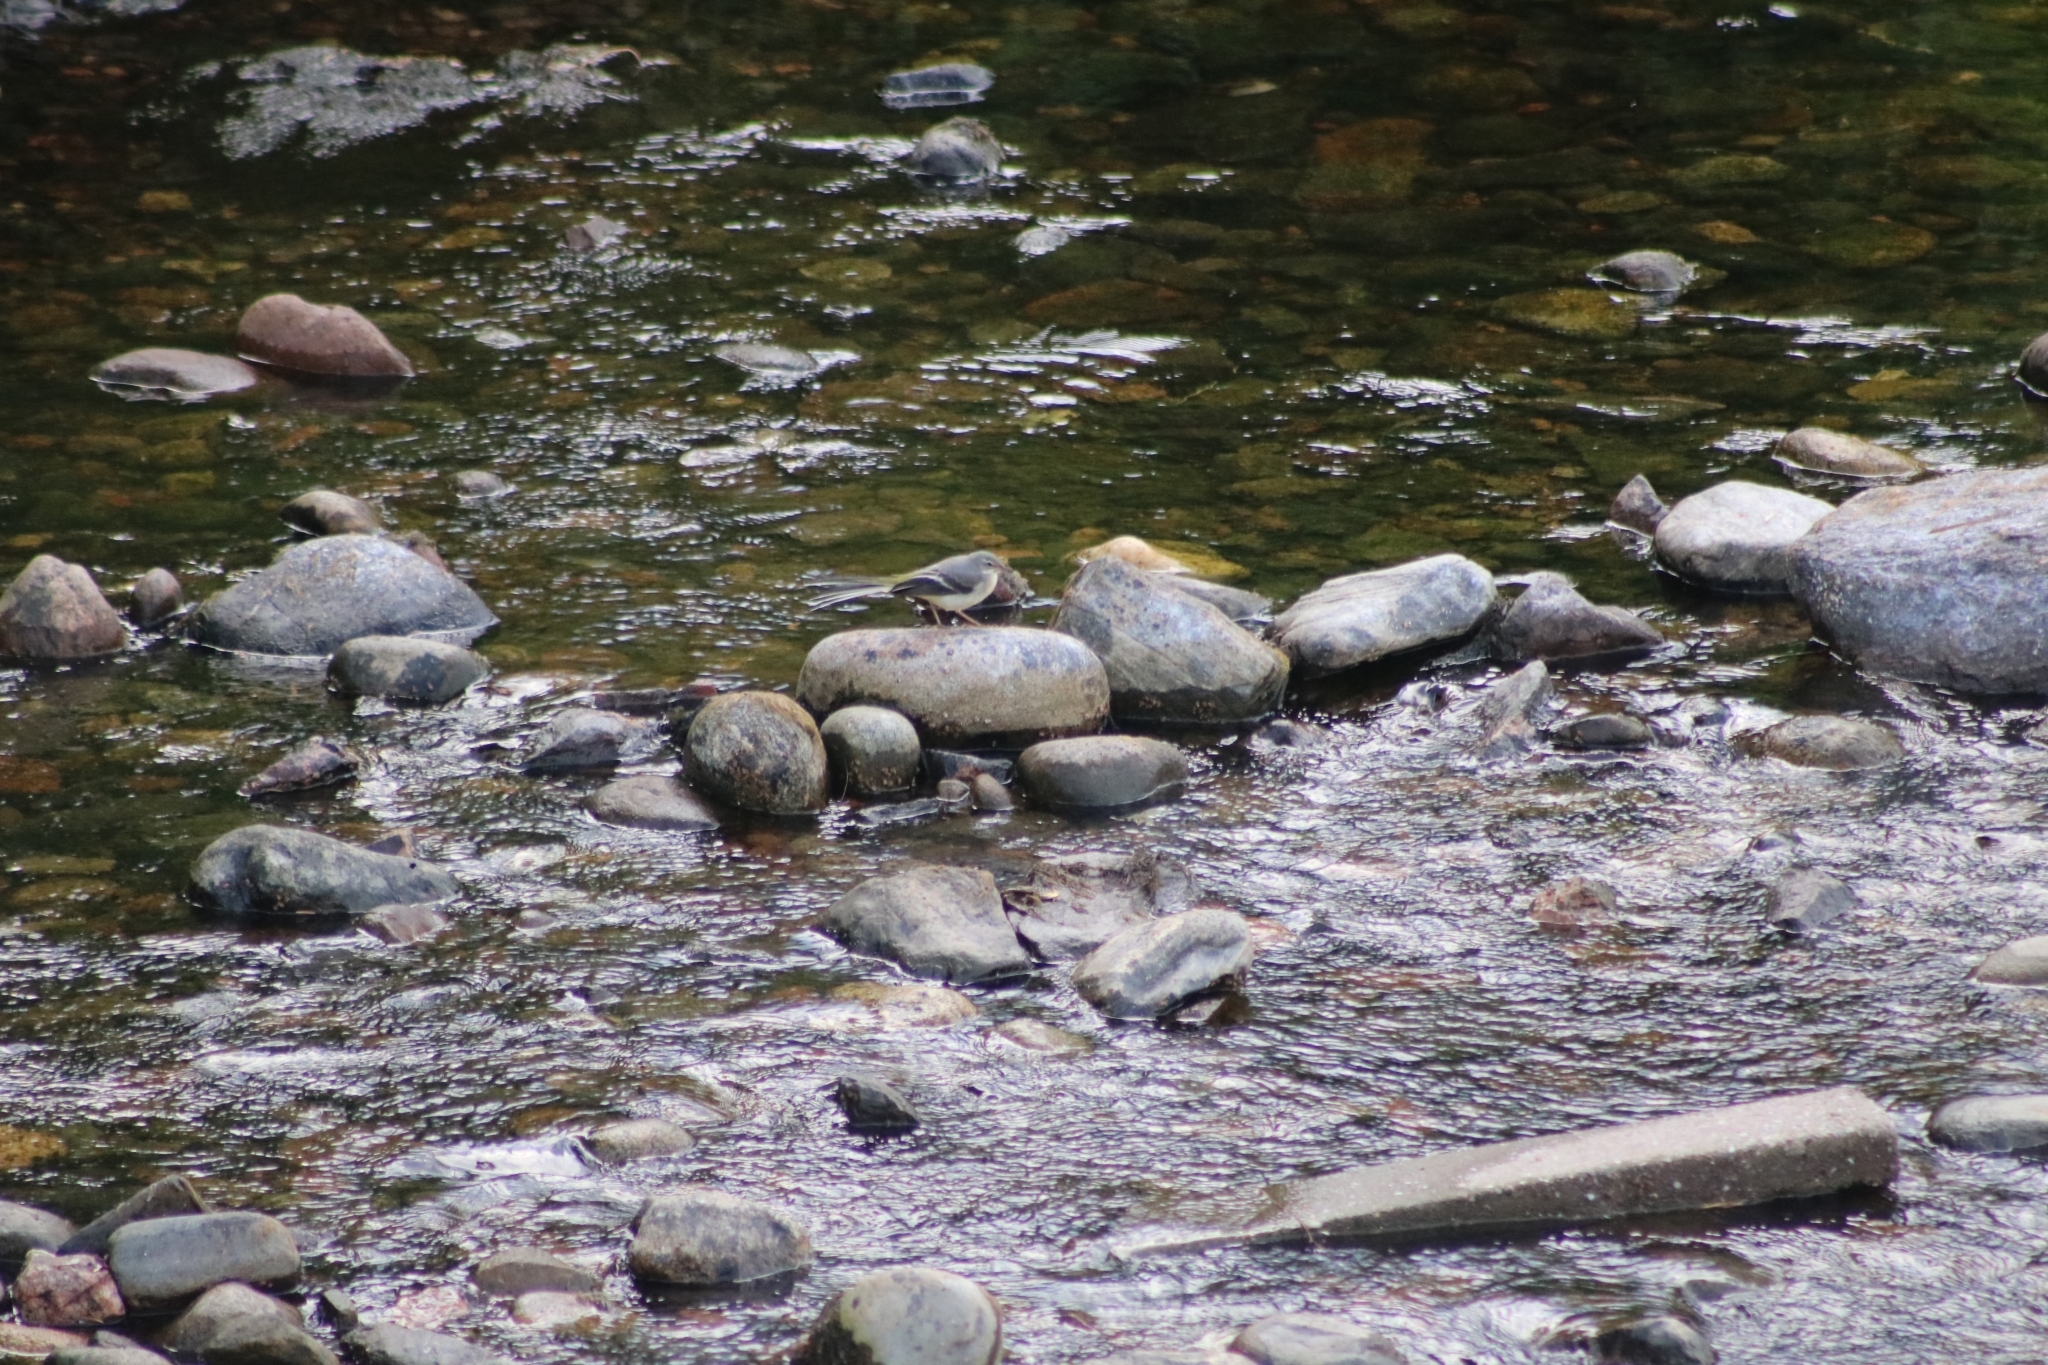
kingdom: Animalia
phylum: Chordata
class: Aves
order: Passeriformes
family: Motacillidae
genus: Motacilla
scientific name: Motacilla cinerea
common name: Grey wagtail
